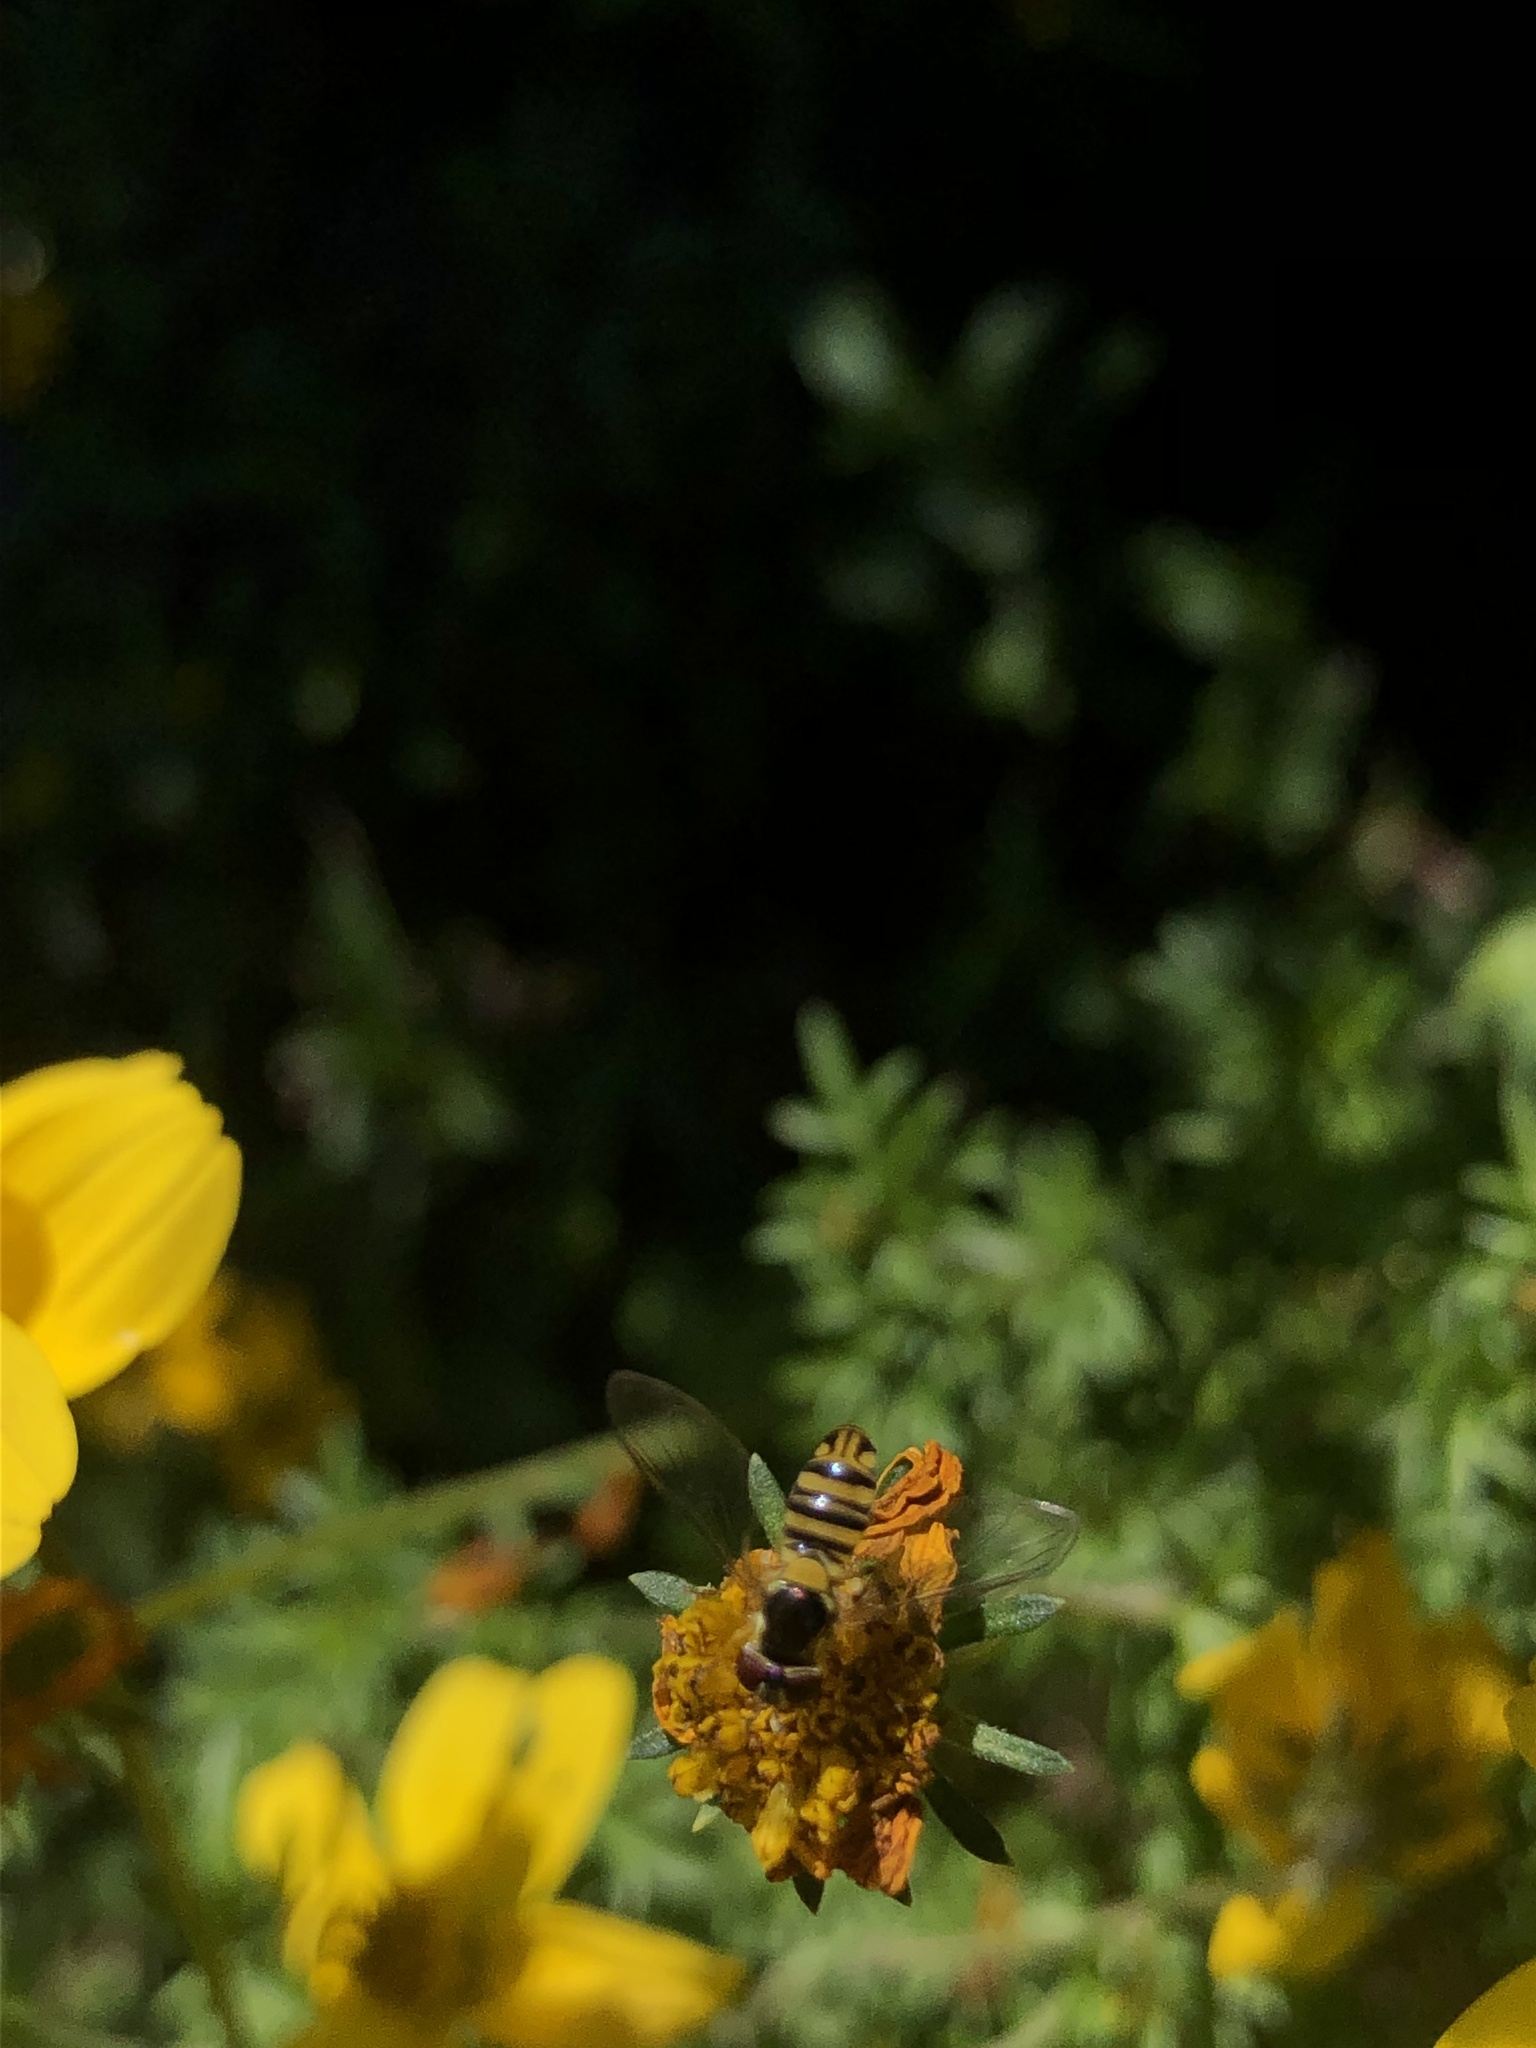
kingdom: Animalia
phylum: Arthropoda
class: Insecta
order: Diptera
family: Syrphidae
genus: Allograpta
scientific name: Allograpta obliqua
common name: Common oblique syrphid
